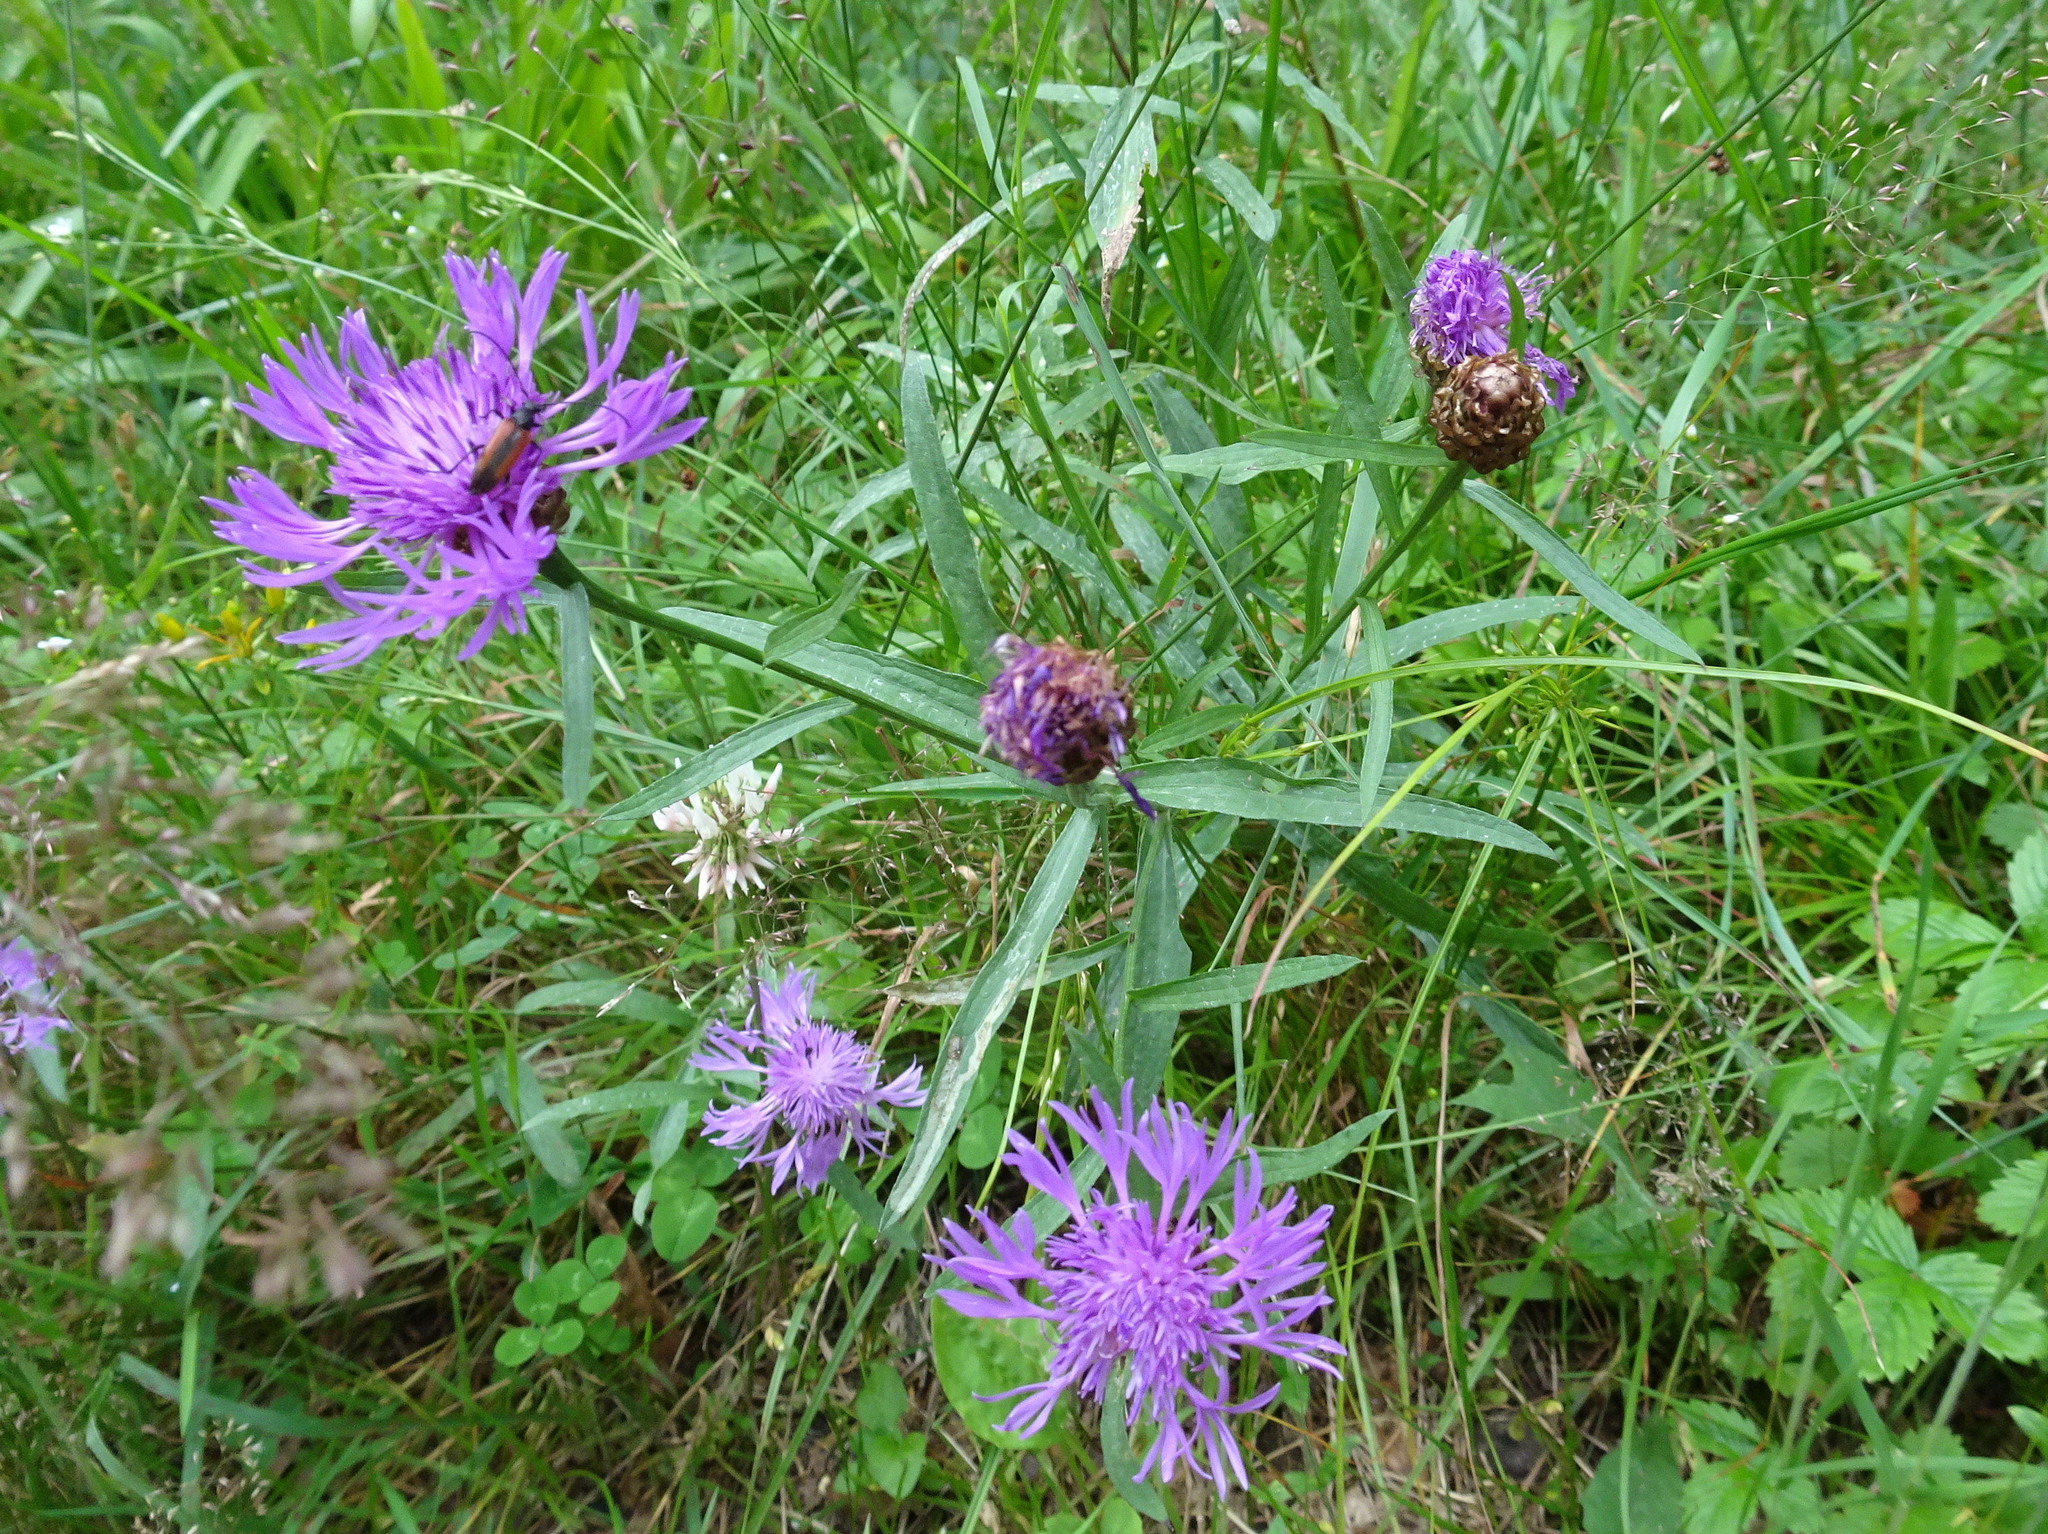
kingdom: Plantae
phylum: Tracheophyta
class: Magnoliopsida
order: Asterales
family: Asteraceae
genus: Centaurea
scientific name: Centaurea jacea
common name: Brown knapweed
